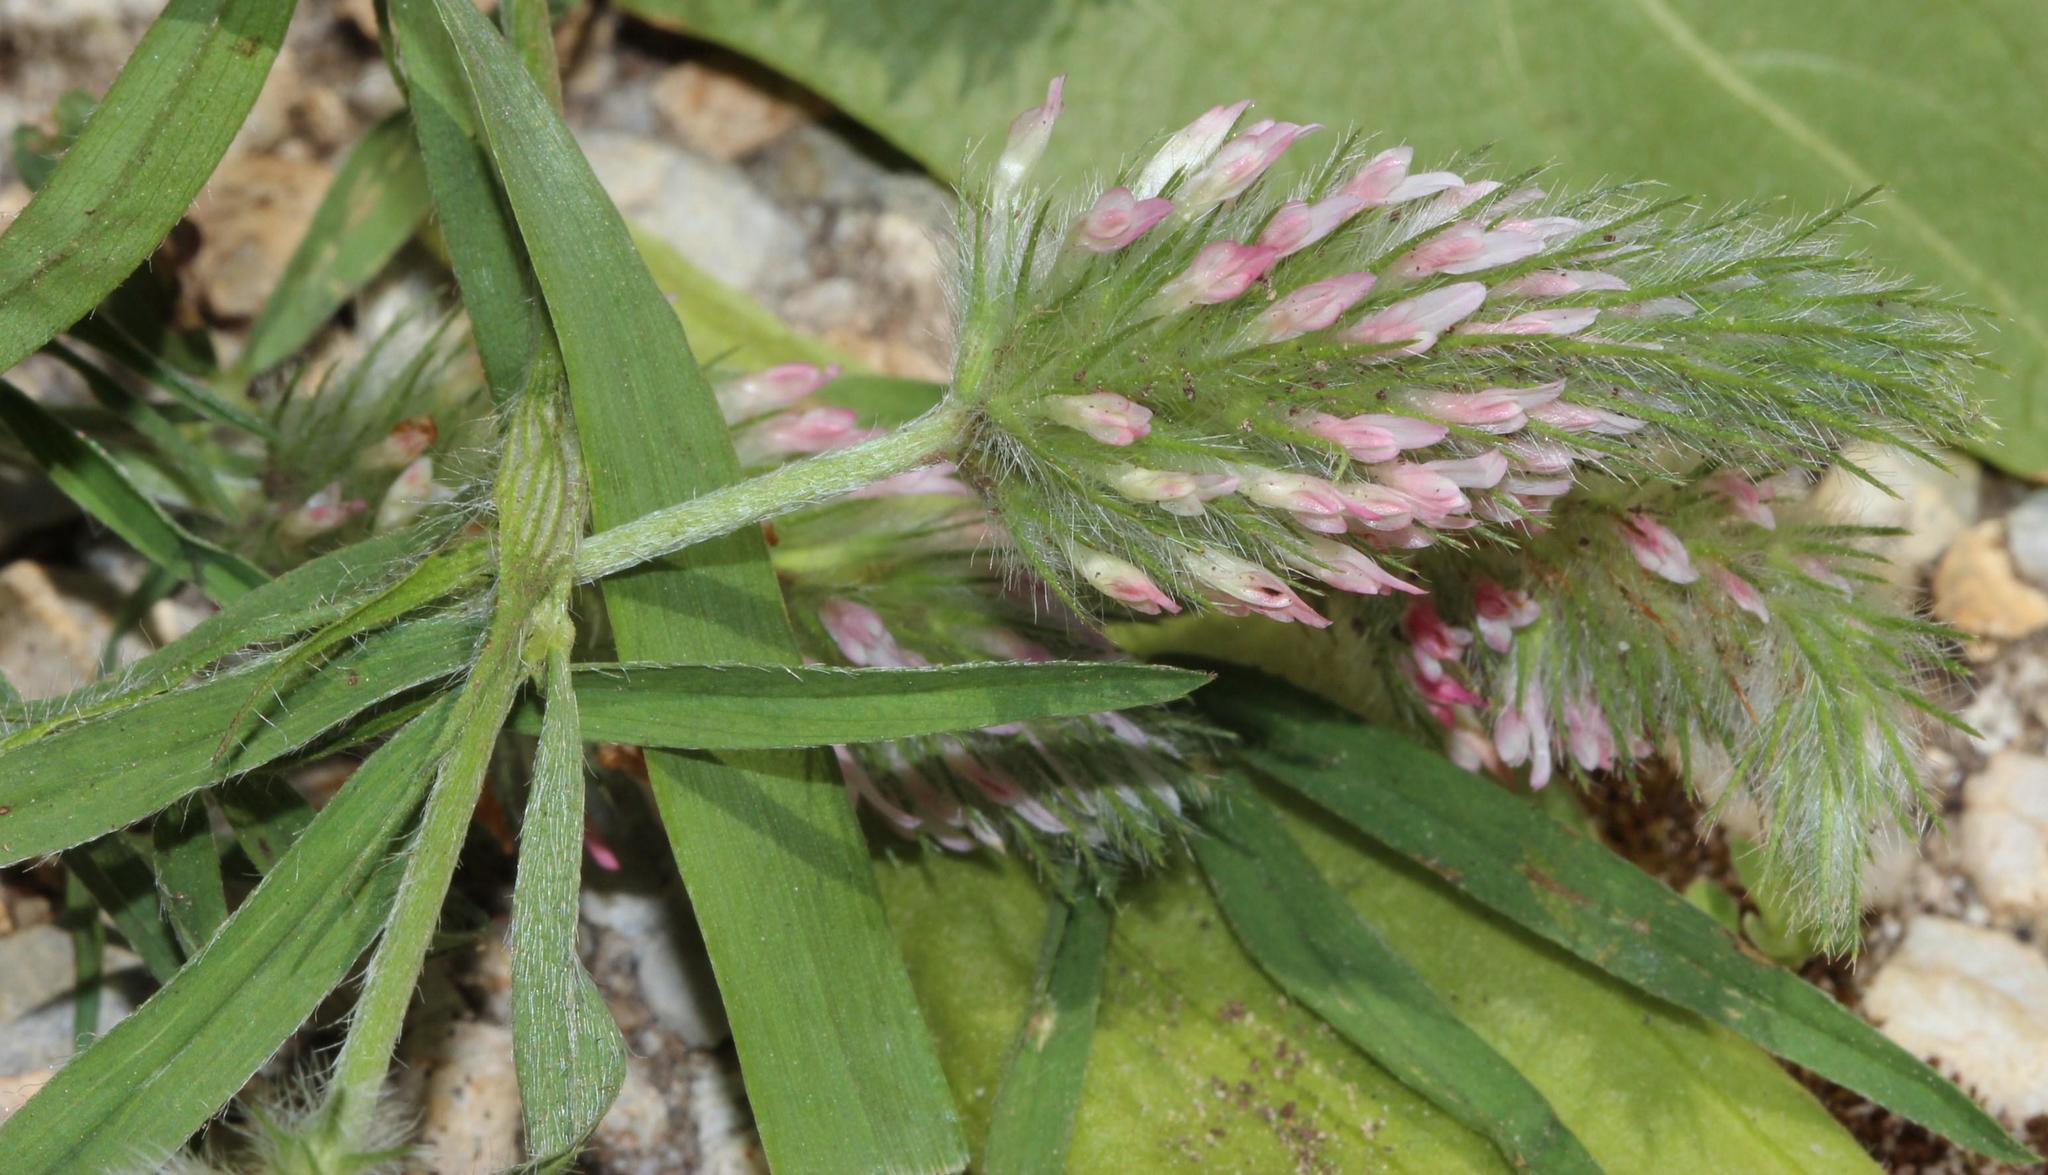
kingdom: Plantae
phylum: Tracheophyta
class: Magnoliopsida
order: Fabales
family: Fabaceae
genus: Trifolium
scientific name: Trifolium angustifolium
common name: Narrow clover
